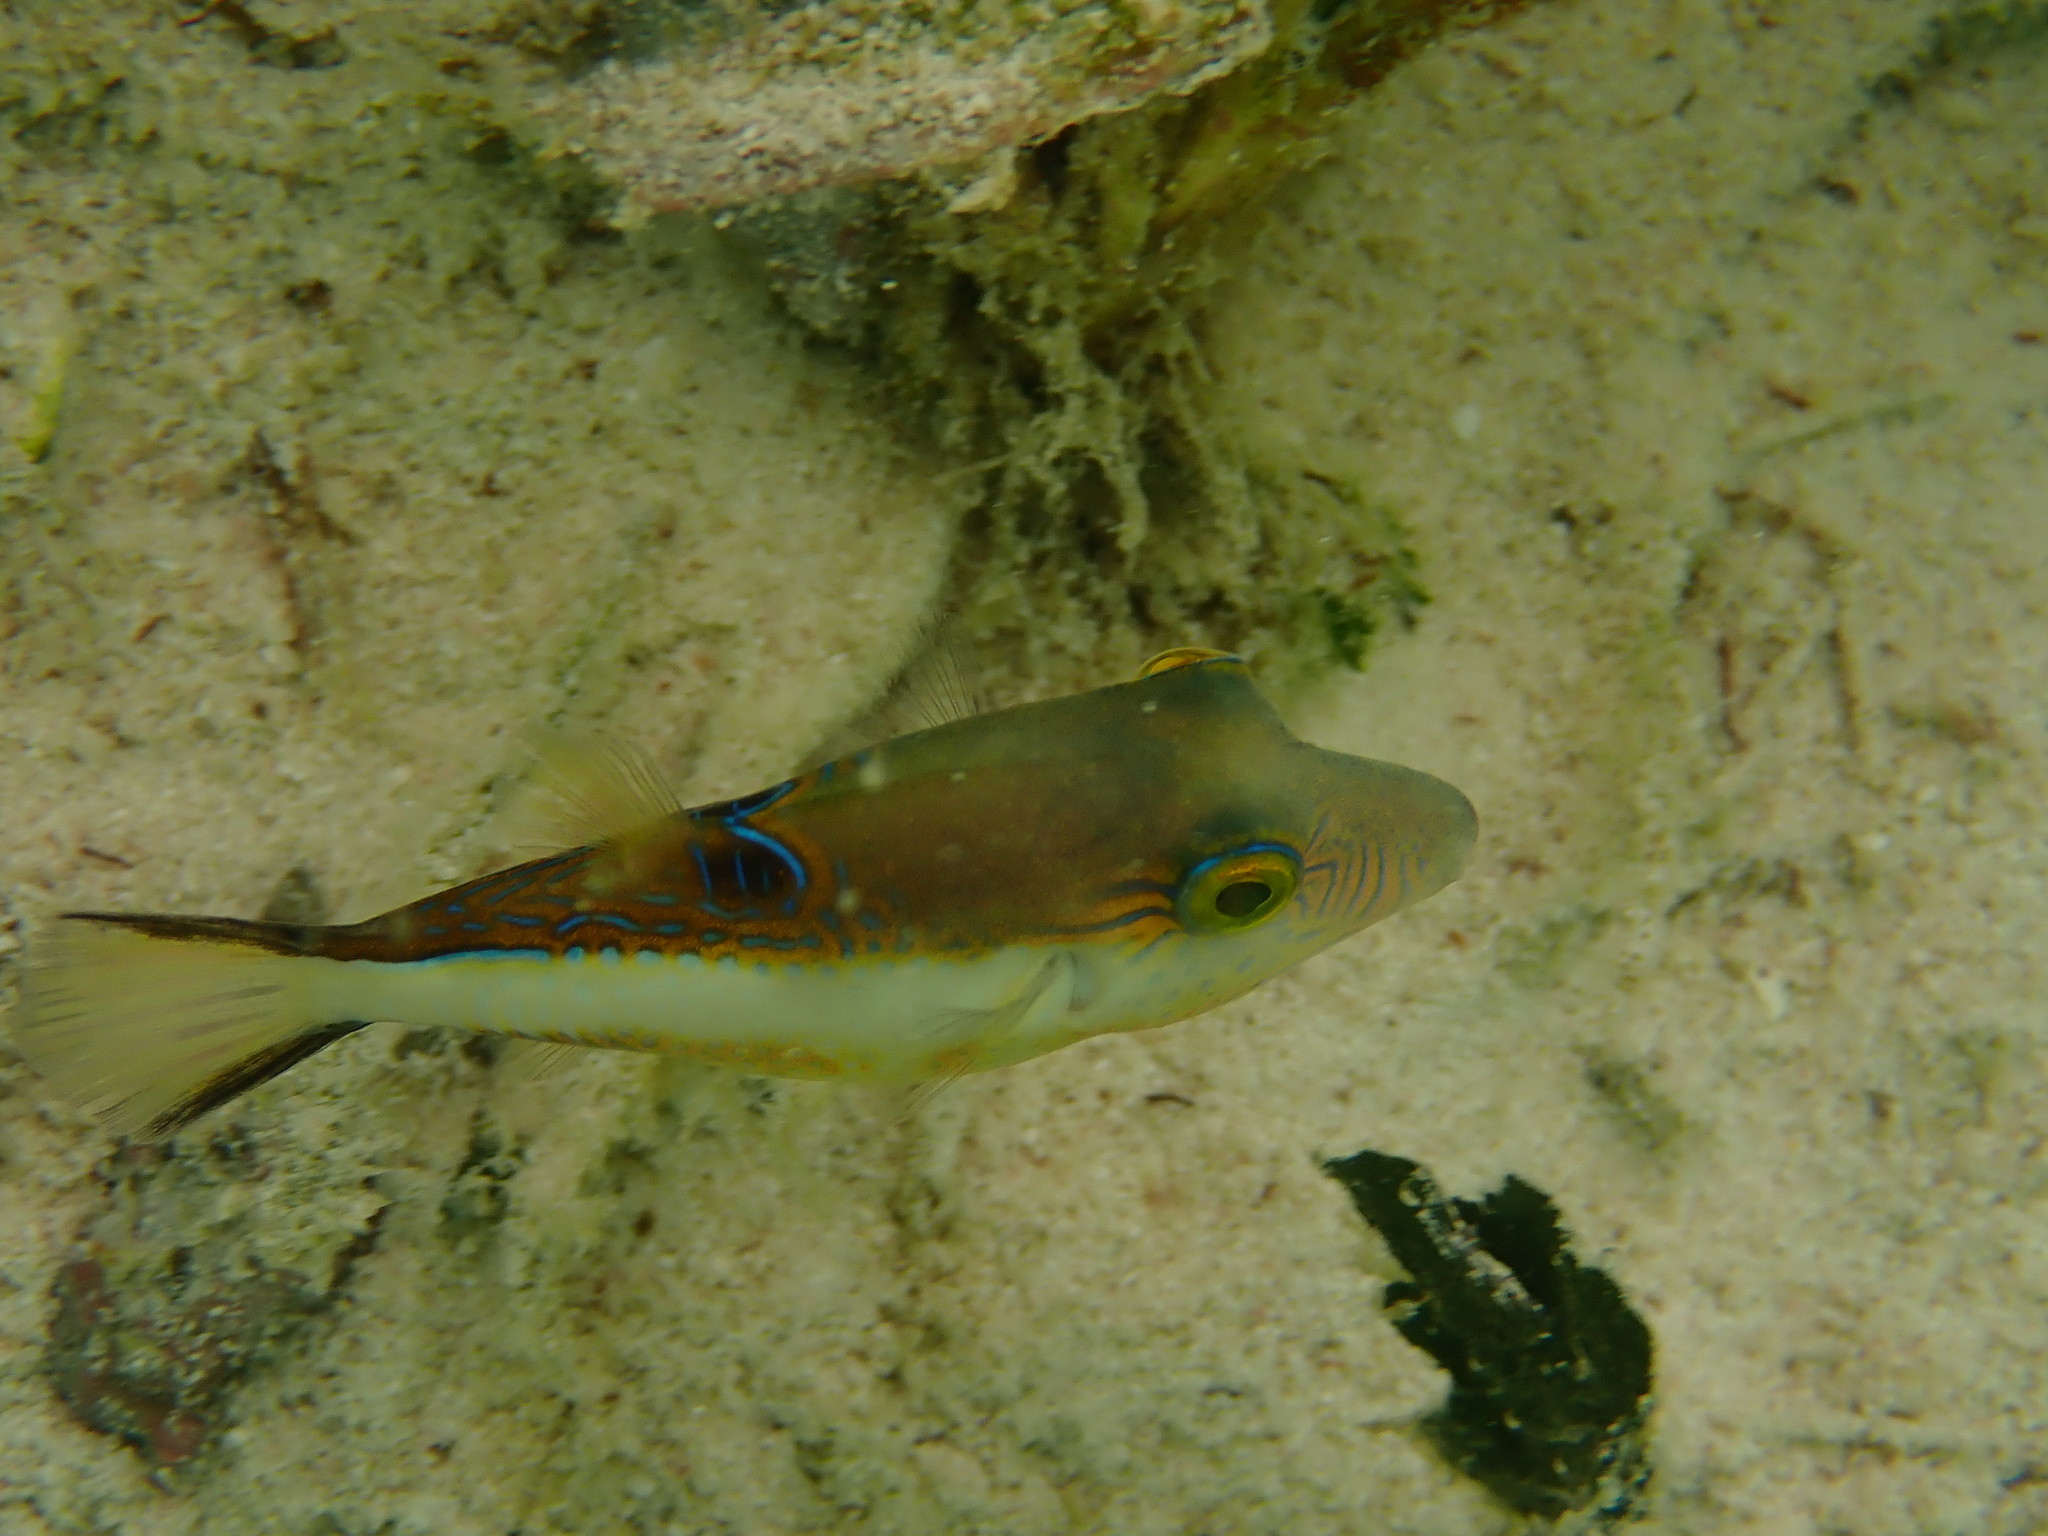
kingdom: Animalia
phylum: Chordata
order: Tetraodontiformes
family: Tetraodontidae
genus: Canthigaster
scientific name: Canthigaster rostrata
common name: Caribbean sharpnose-puffer
